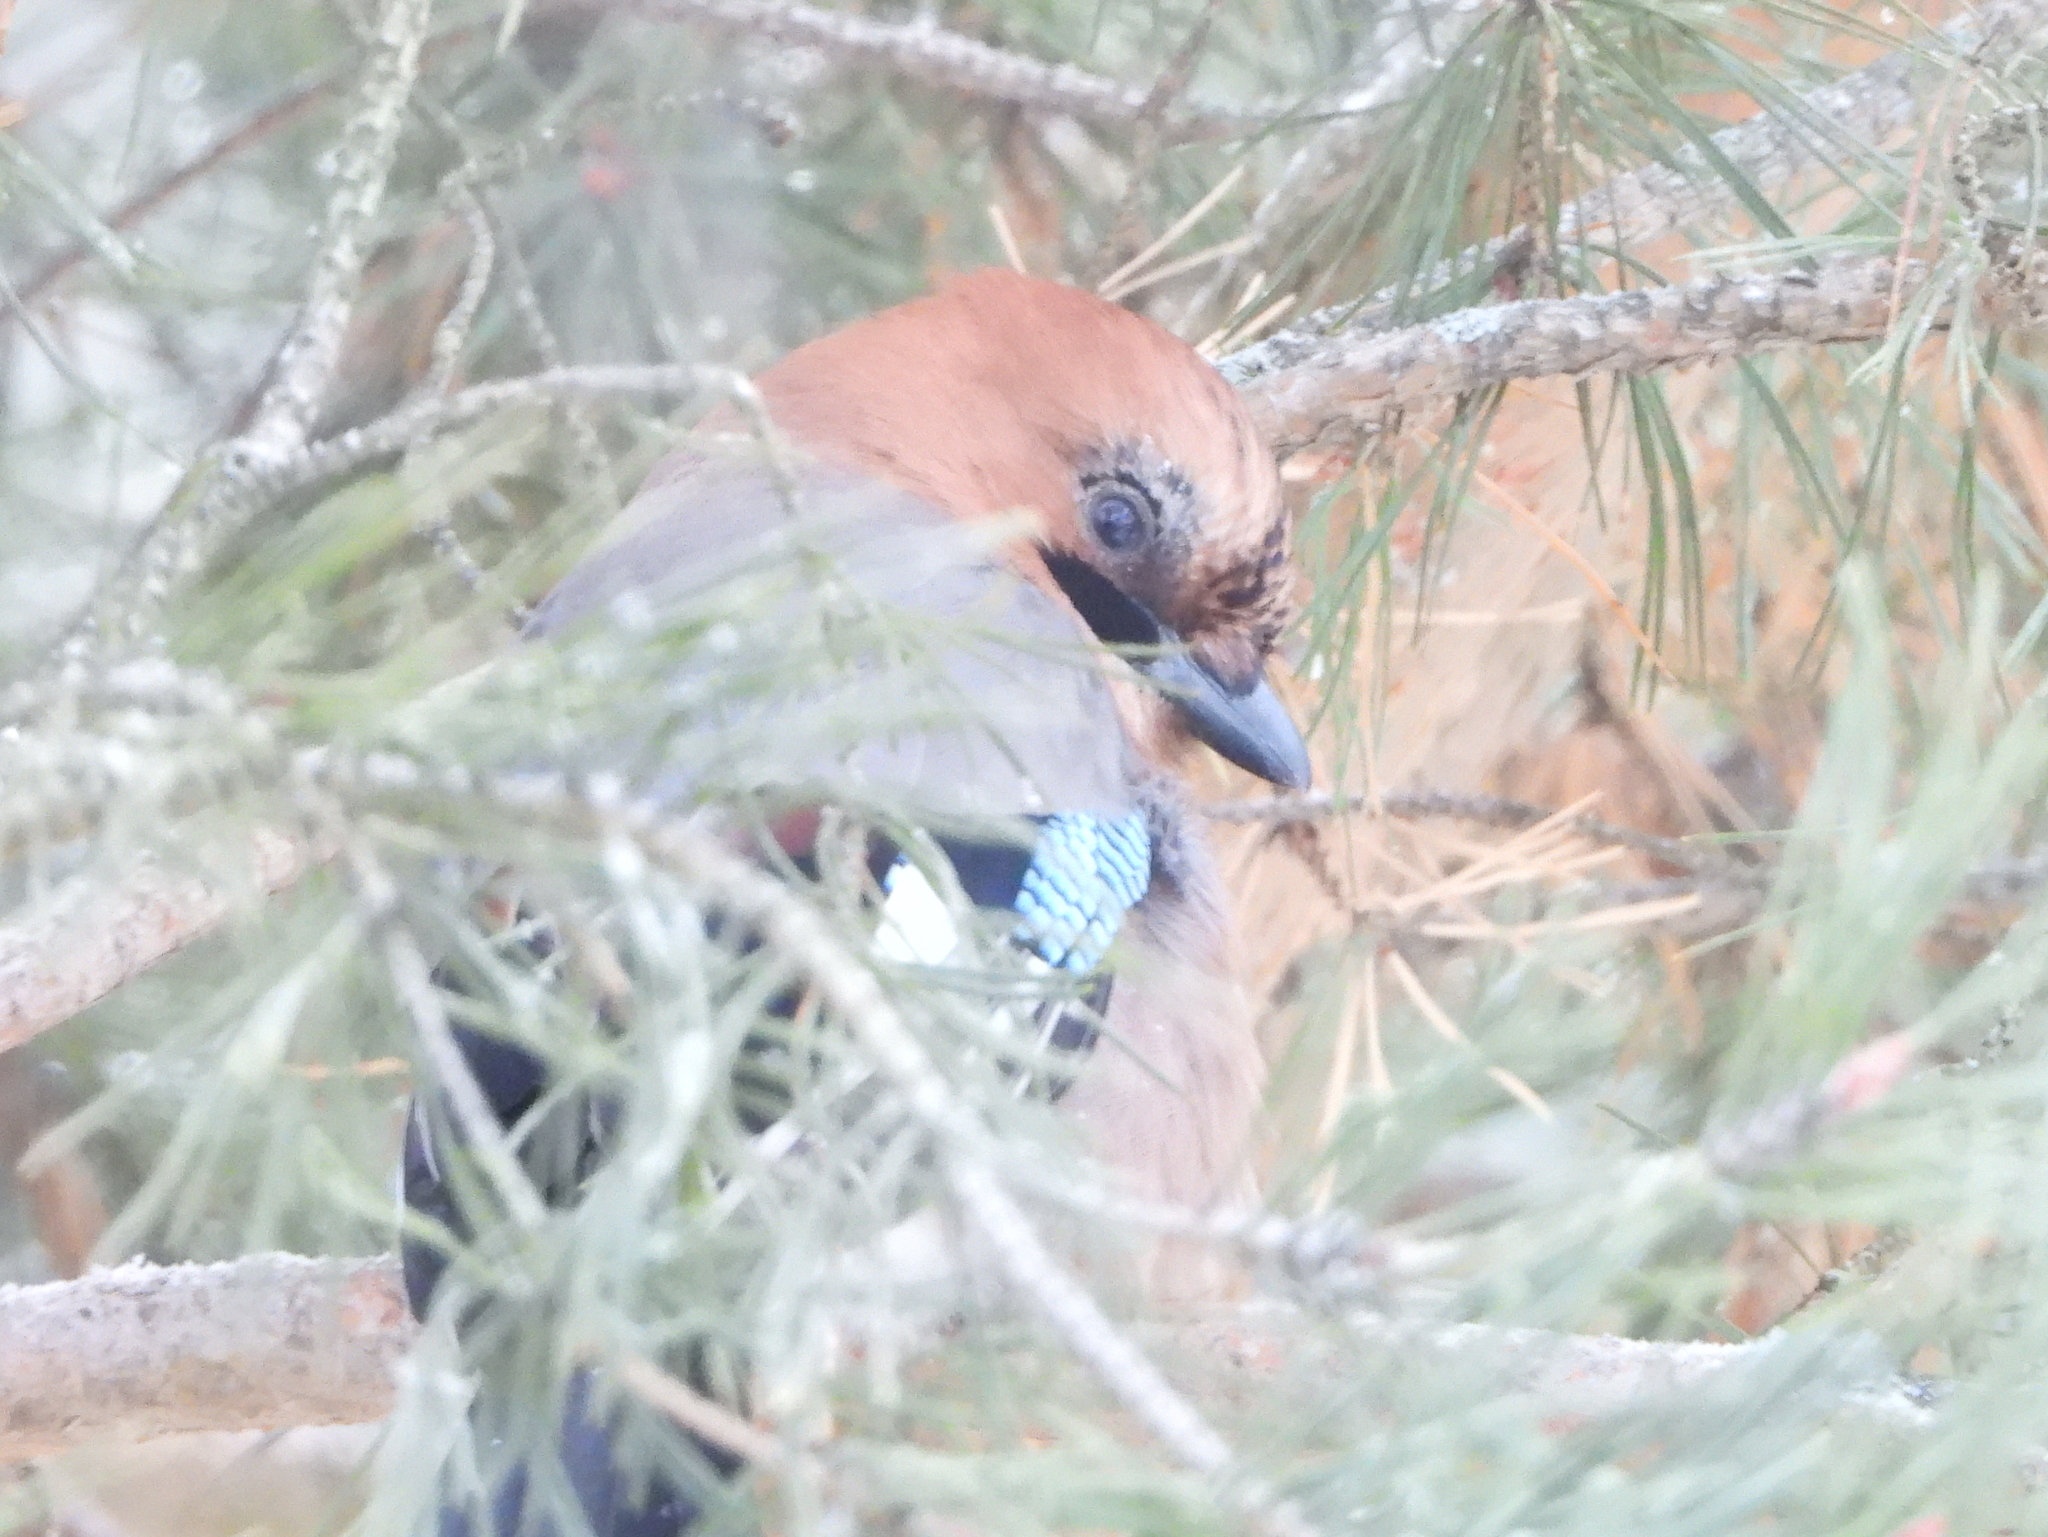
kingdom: Animalia
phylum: Chordata
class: Aves
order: Passeriformes
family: Corvidae
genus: Garrulus
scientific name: Garrulus glandarius
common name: Eurasian jay
